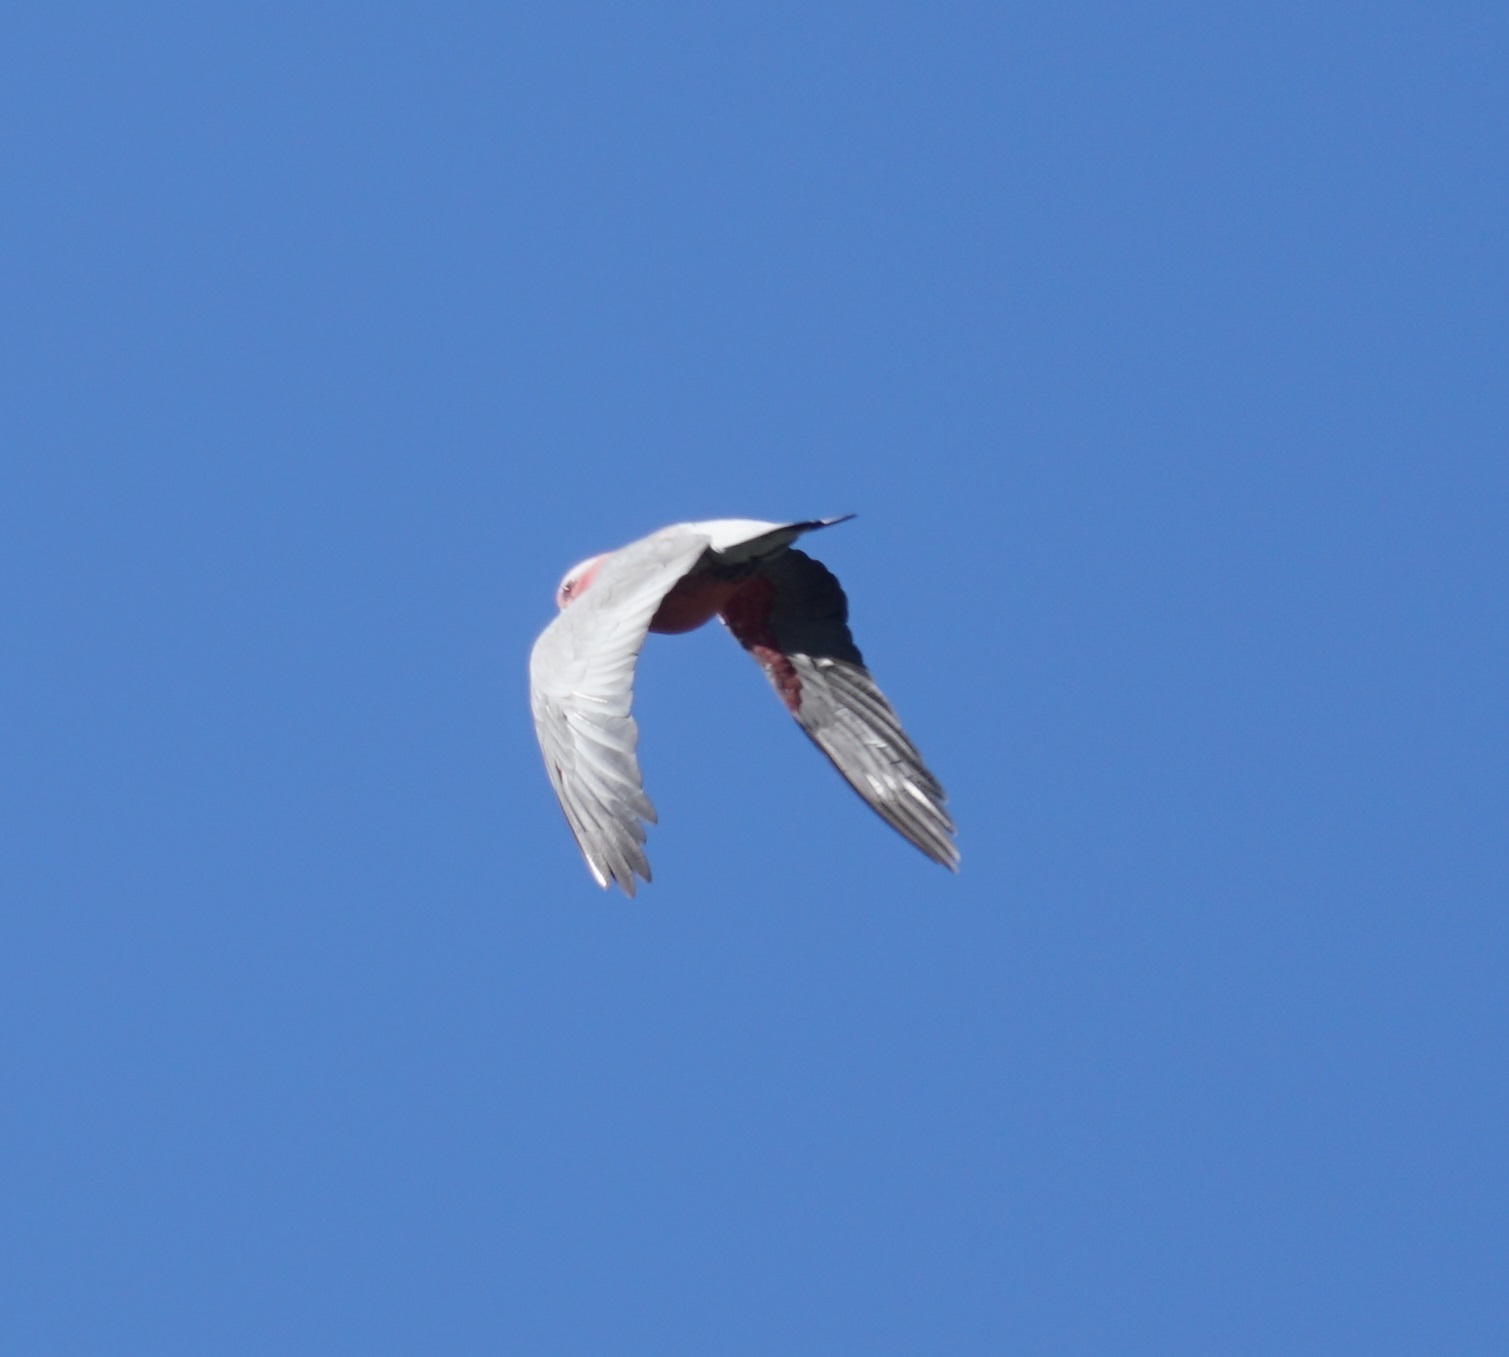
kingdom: Animalia
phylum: Chordata
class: Aves
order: Psittaciformes
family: Psittacidae
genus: Eolophus
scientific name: Eolophus roseicapilla
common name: Galah
